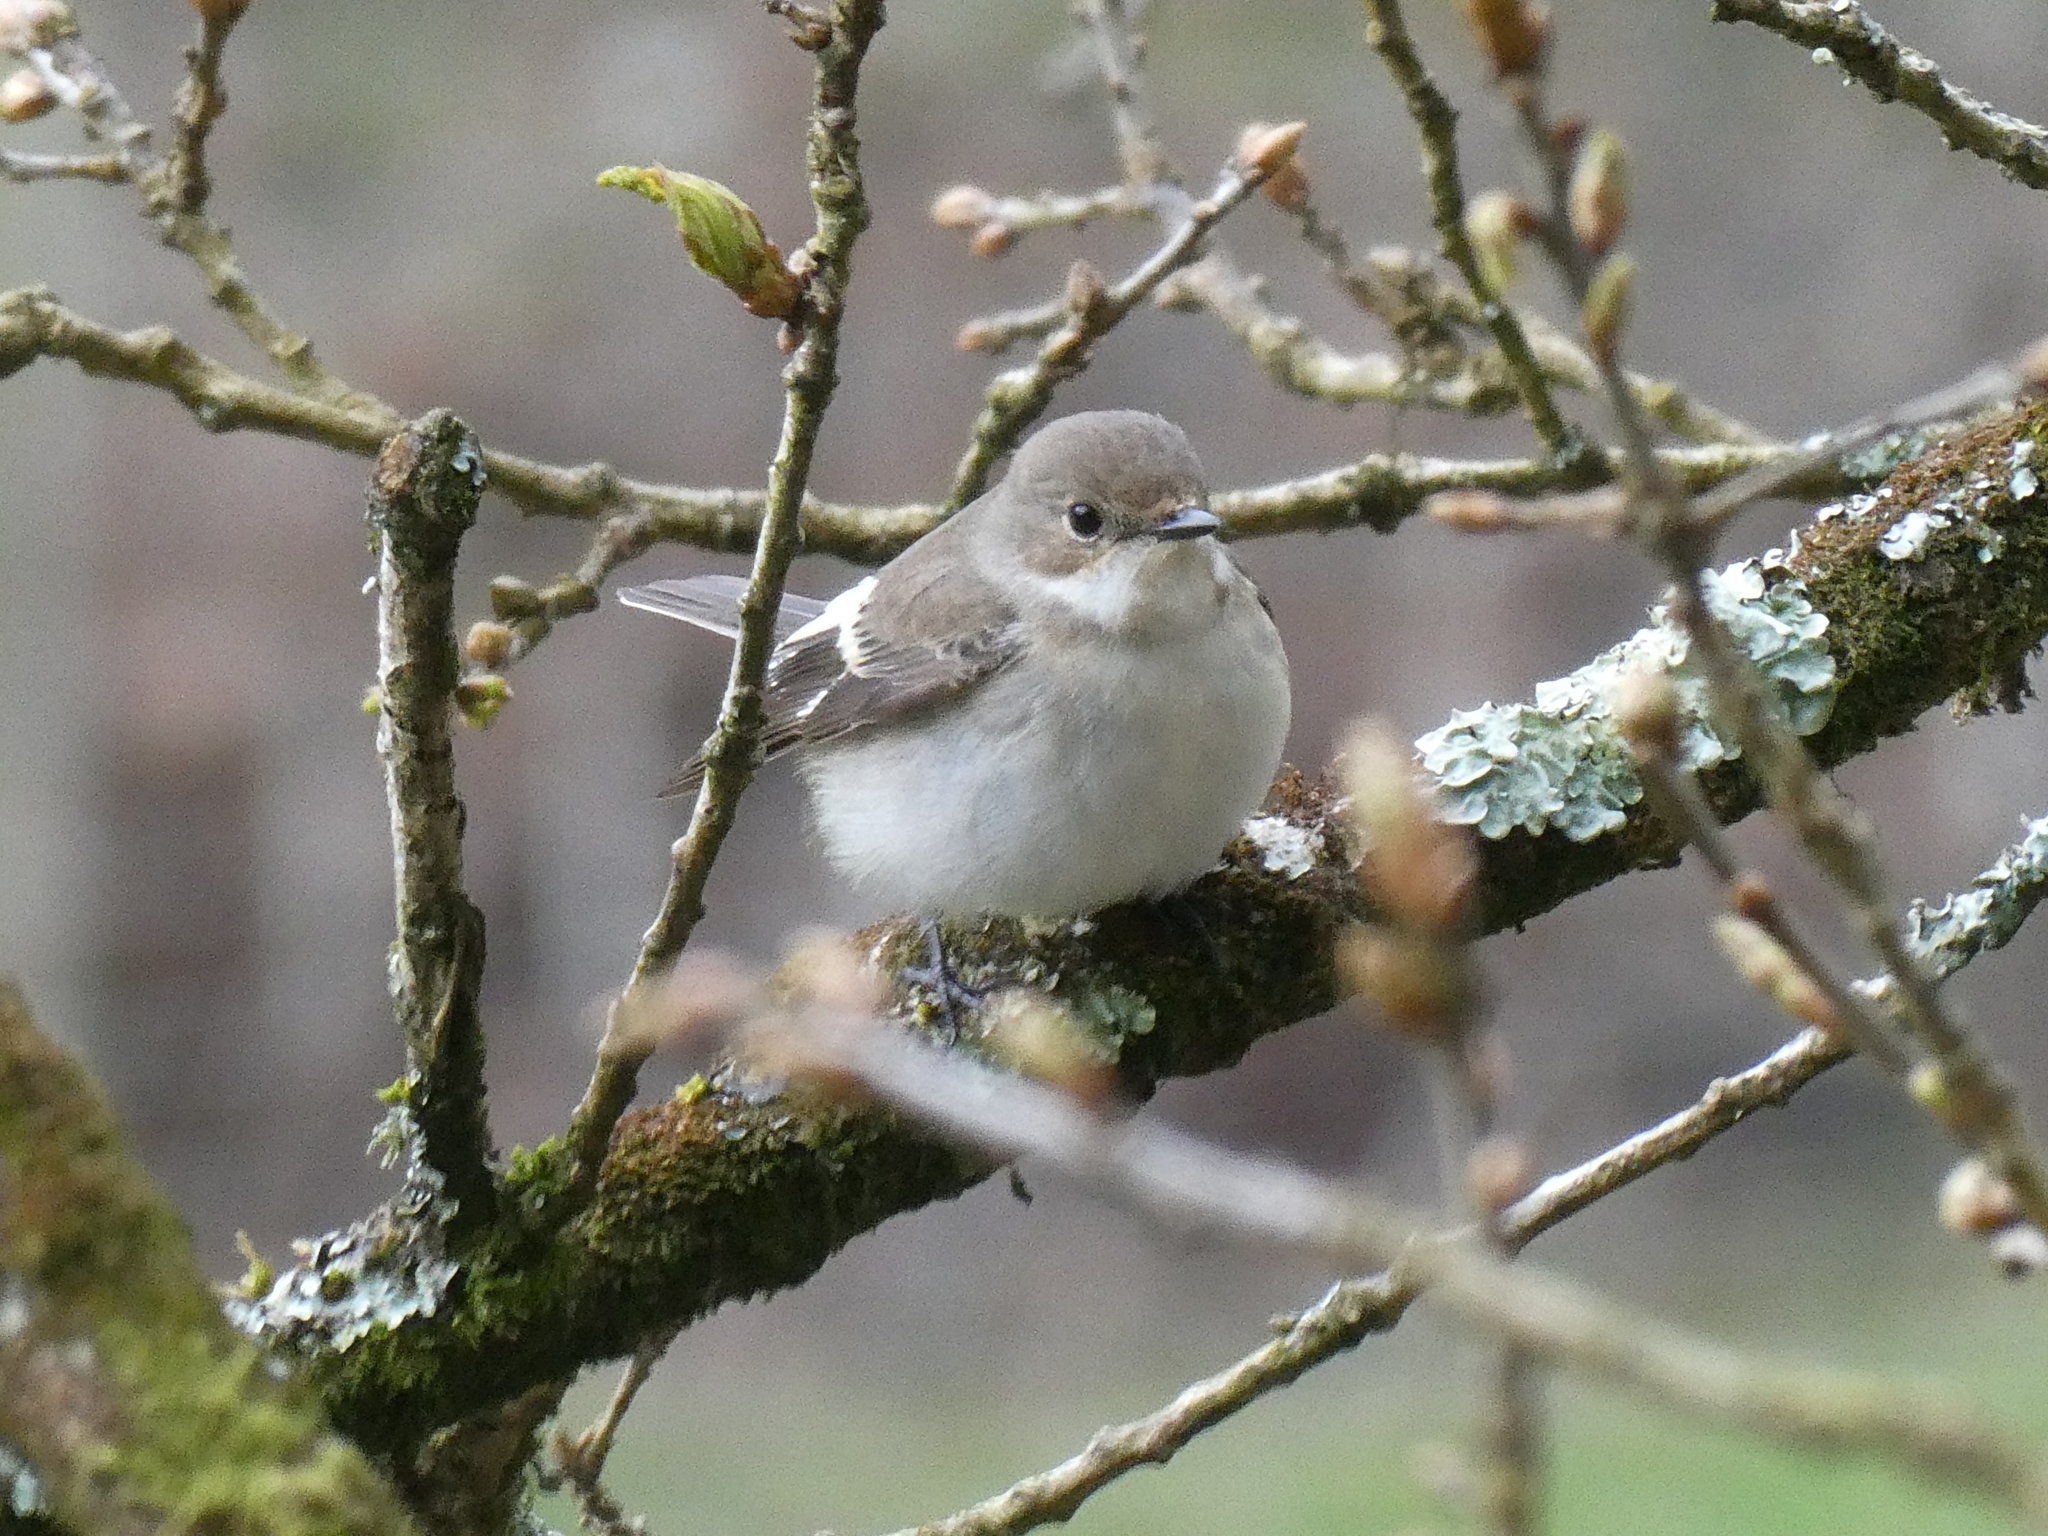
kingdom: Animalia
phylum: Chordata
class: Aves
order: Passeriformes
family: Muscicapidae
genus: Ficedula
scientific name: Ficedula hypoleuca
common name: European pied flycatcher
